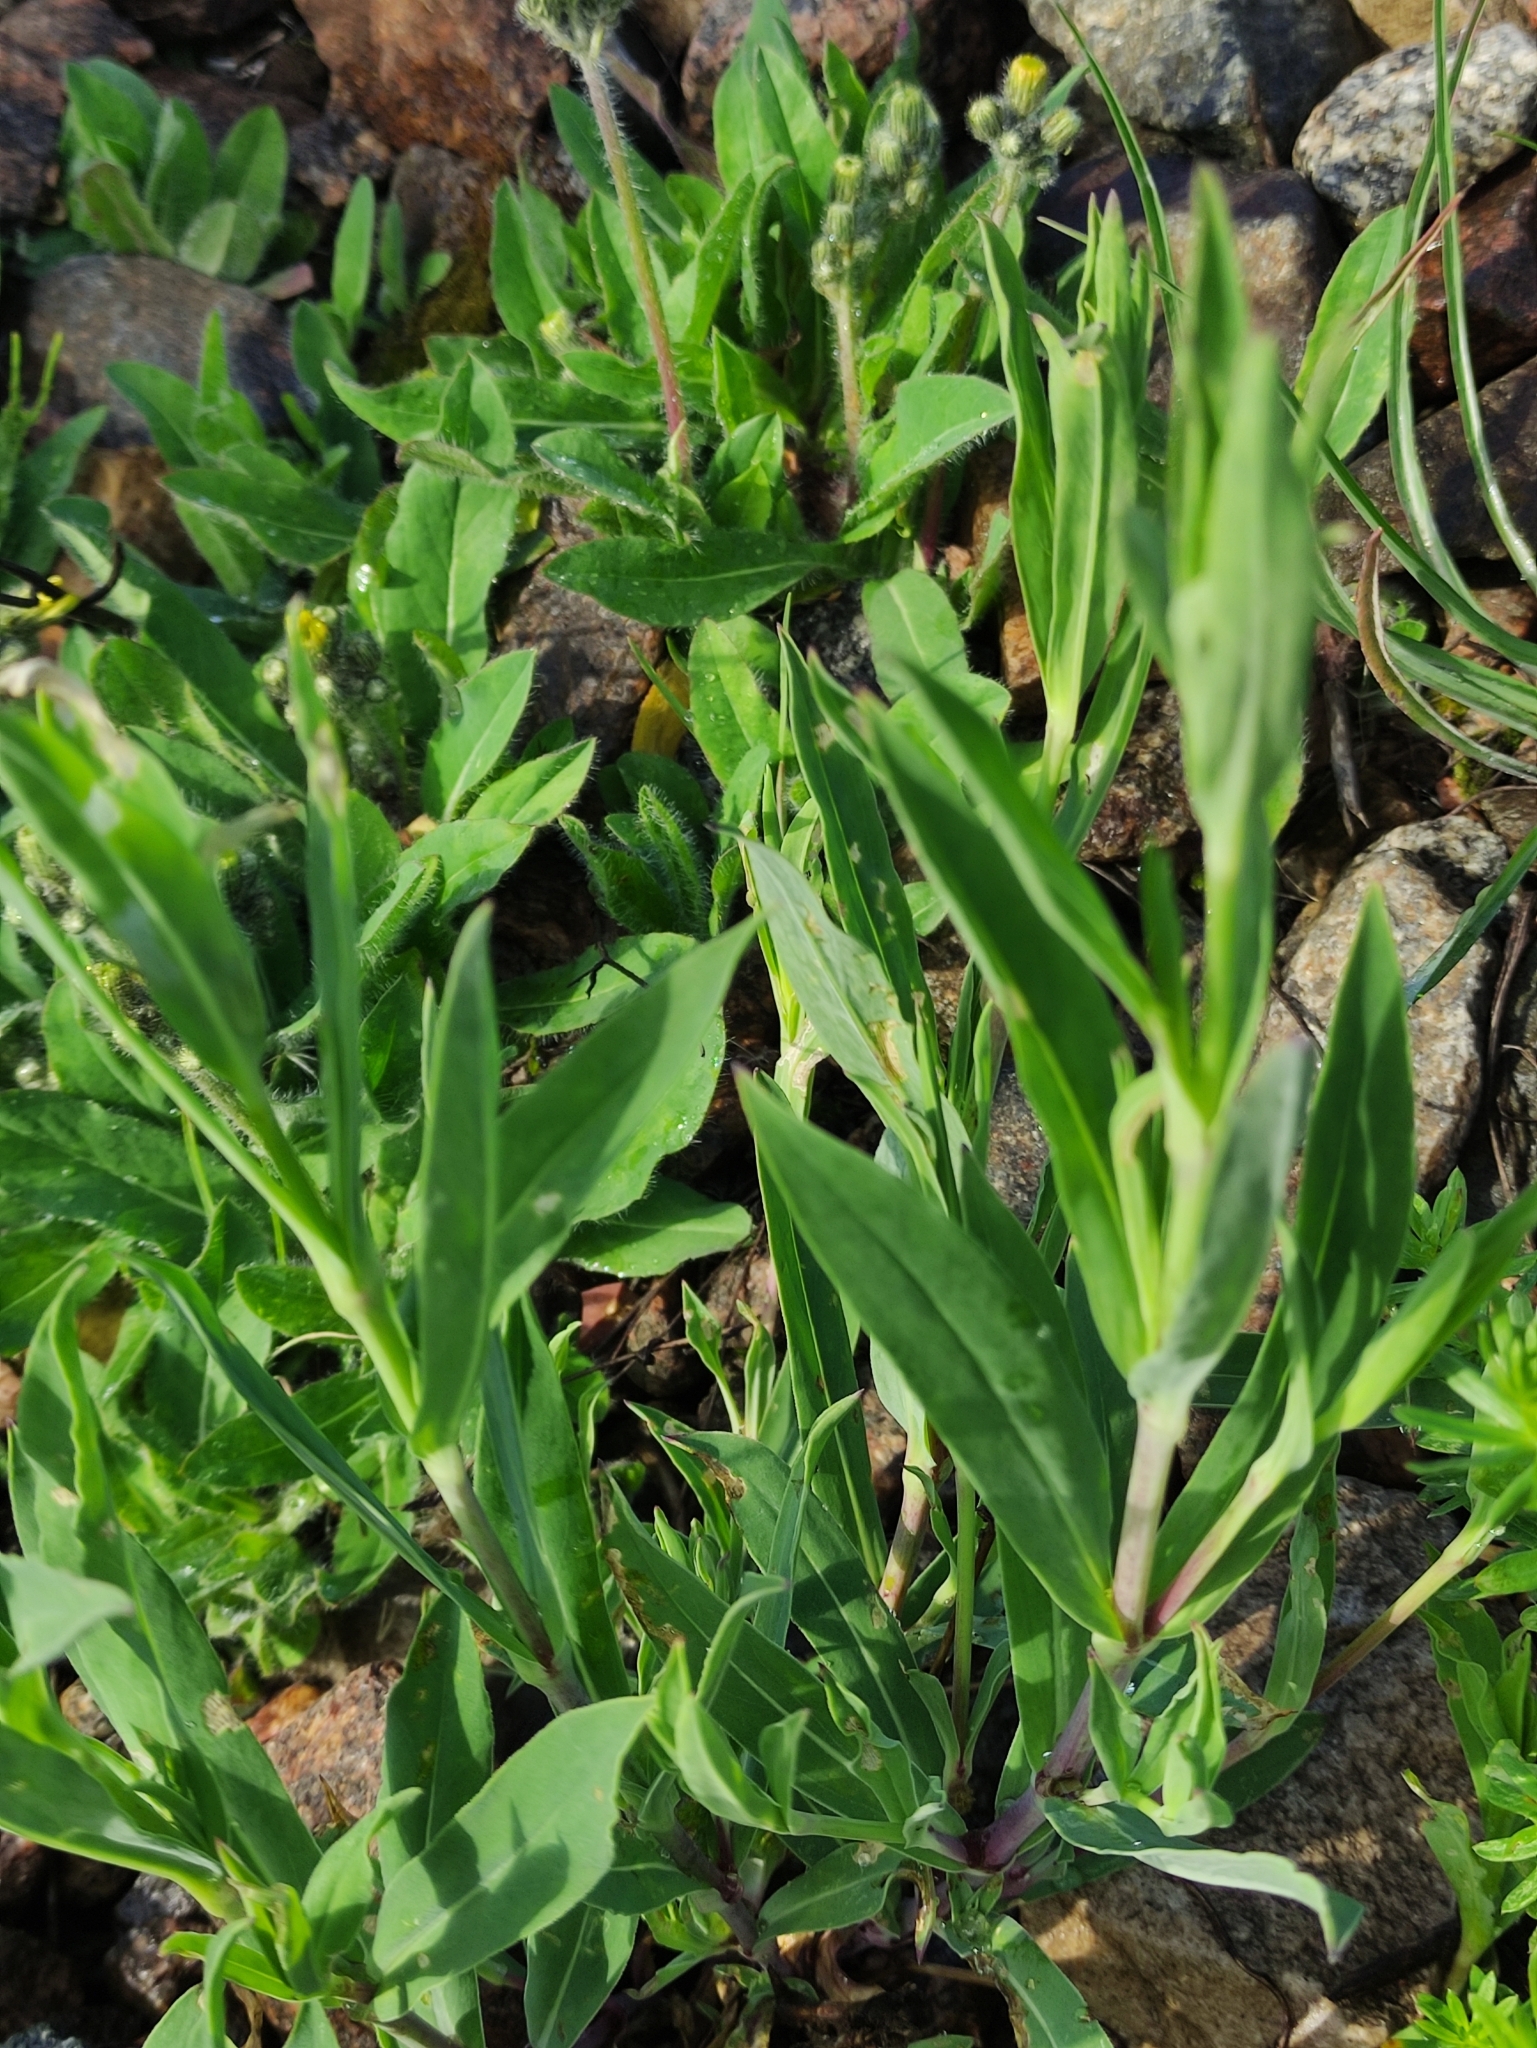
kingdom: Plantae
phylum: Tracheophyta
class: Magnoliopsida
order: Caryophyllales
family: Caryophyllaceae
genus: Silene
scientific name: Silene vulgaris
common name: Bladder campion
